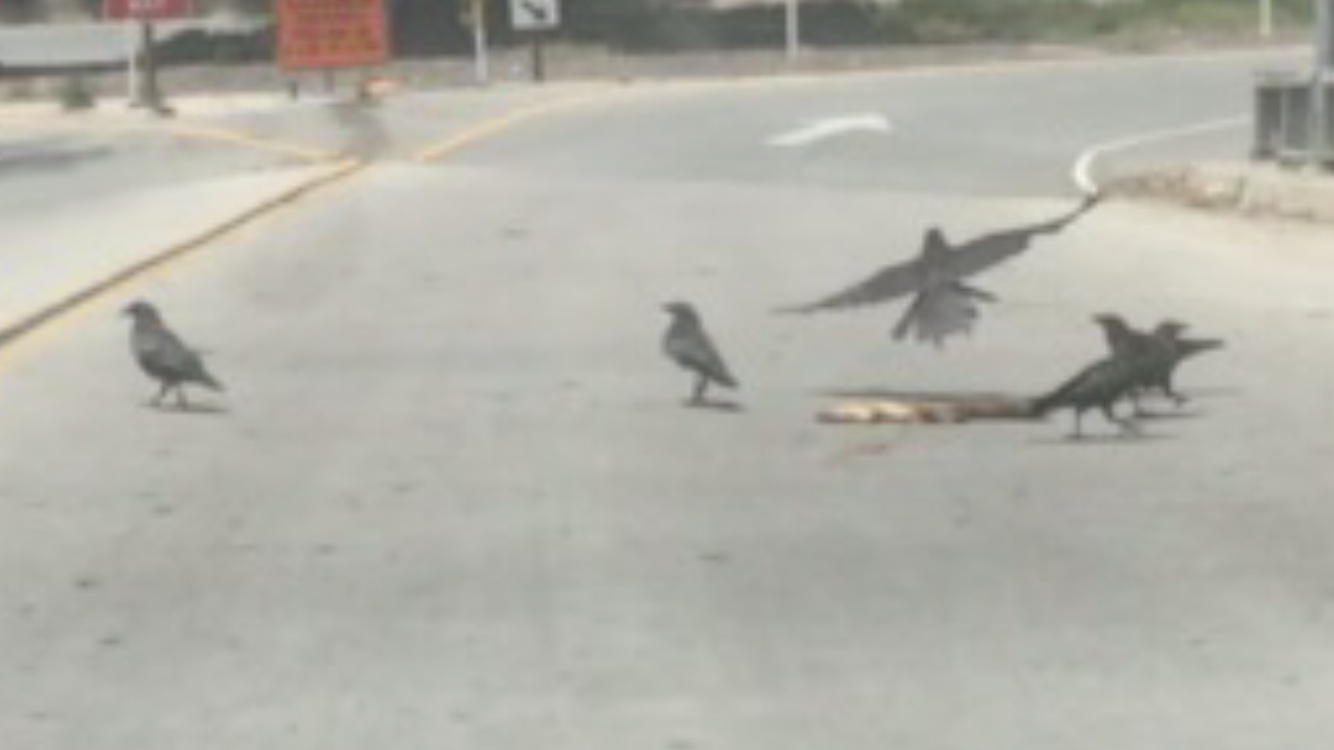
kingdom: Animalia
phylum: Chordata
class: Aves
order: Passeriformes
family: Corvidae
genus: Corvus
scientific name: Corvus brachyrhynchos
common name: American crow
